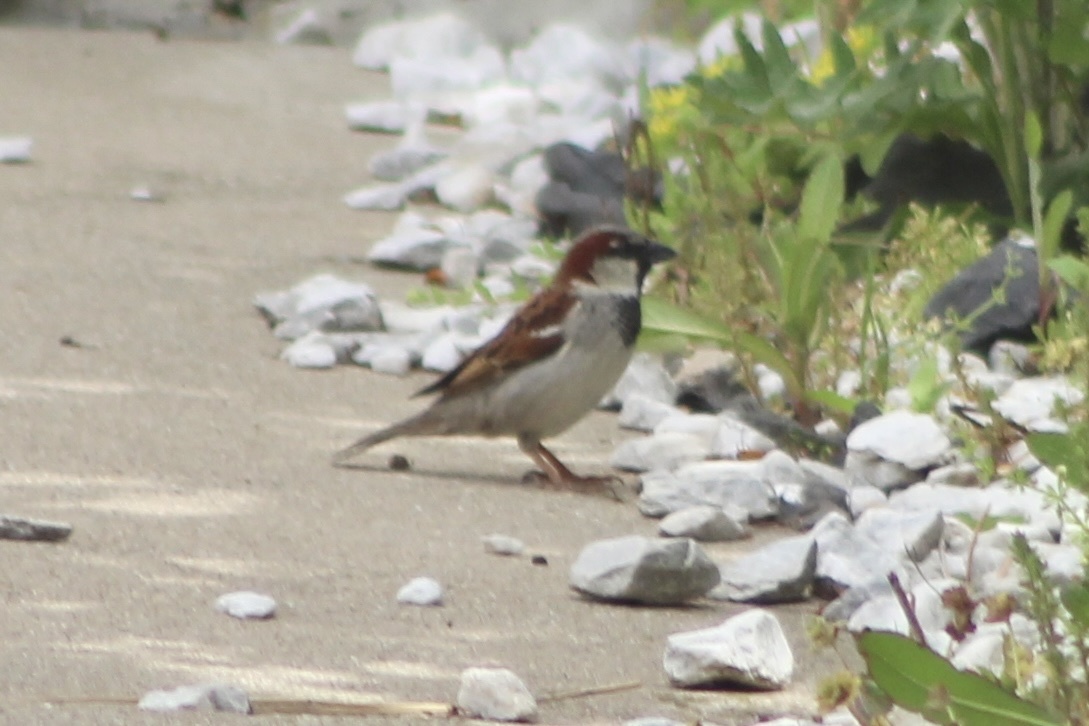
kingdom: Animalia
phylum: Chordata
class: Aves
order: Passeriformes
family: Passeridae
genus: Passer
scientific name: Passer domesticus
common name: House sparrow
